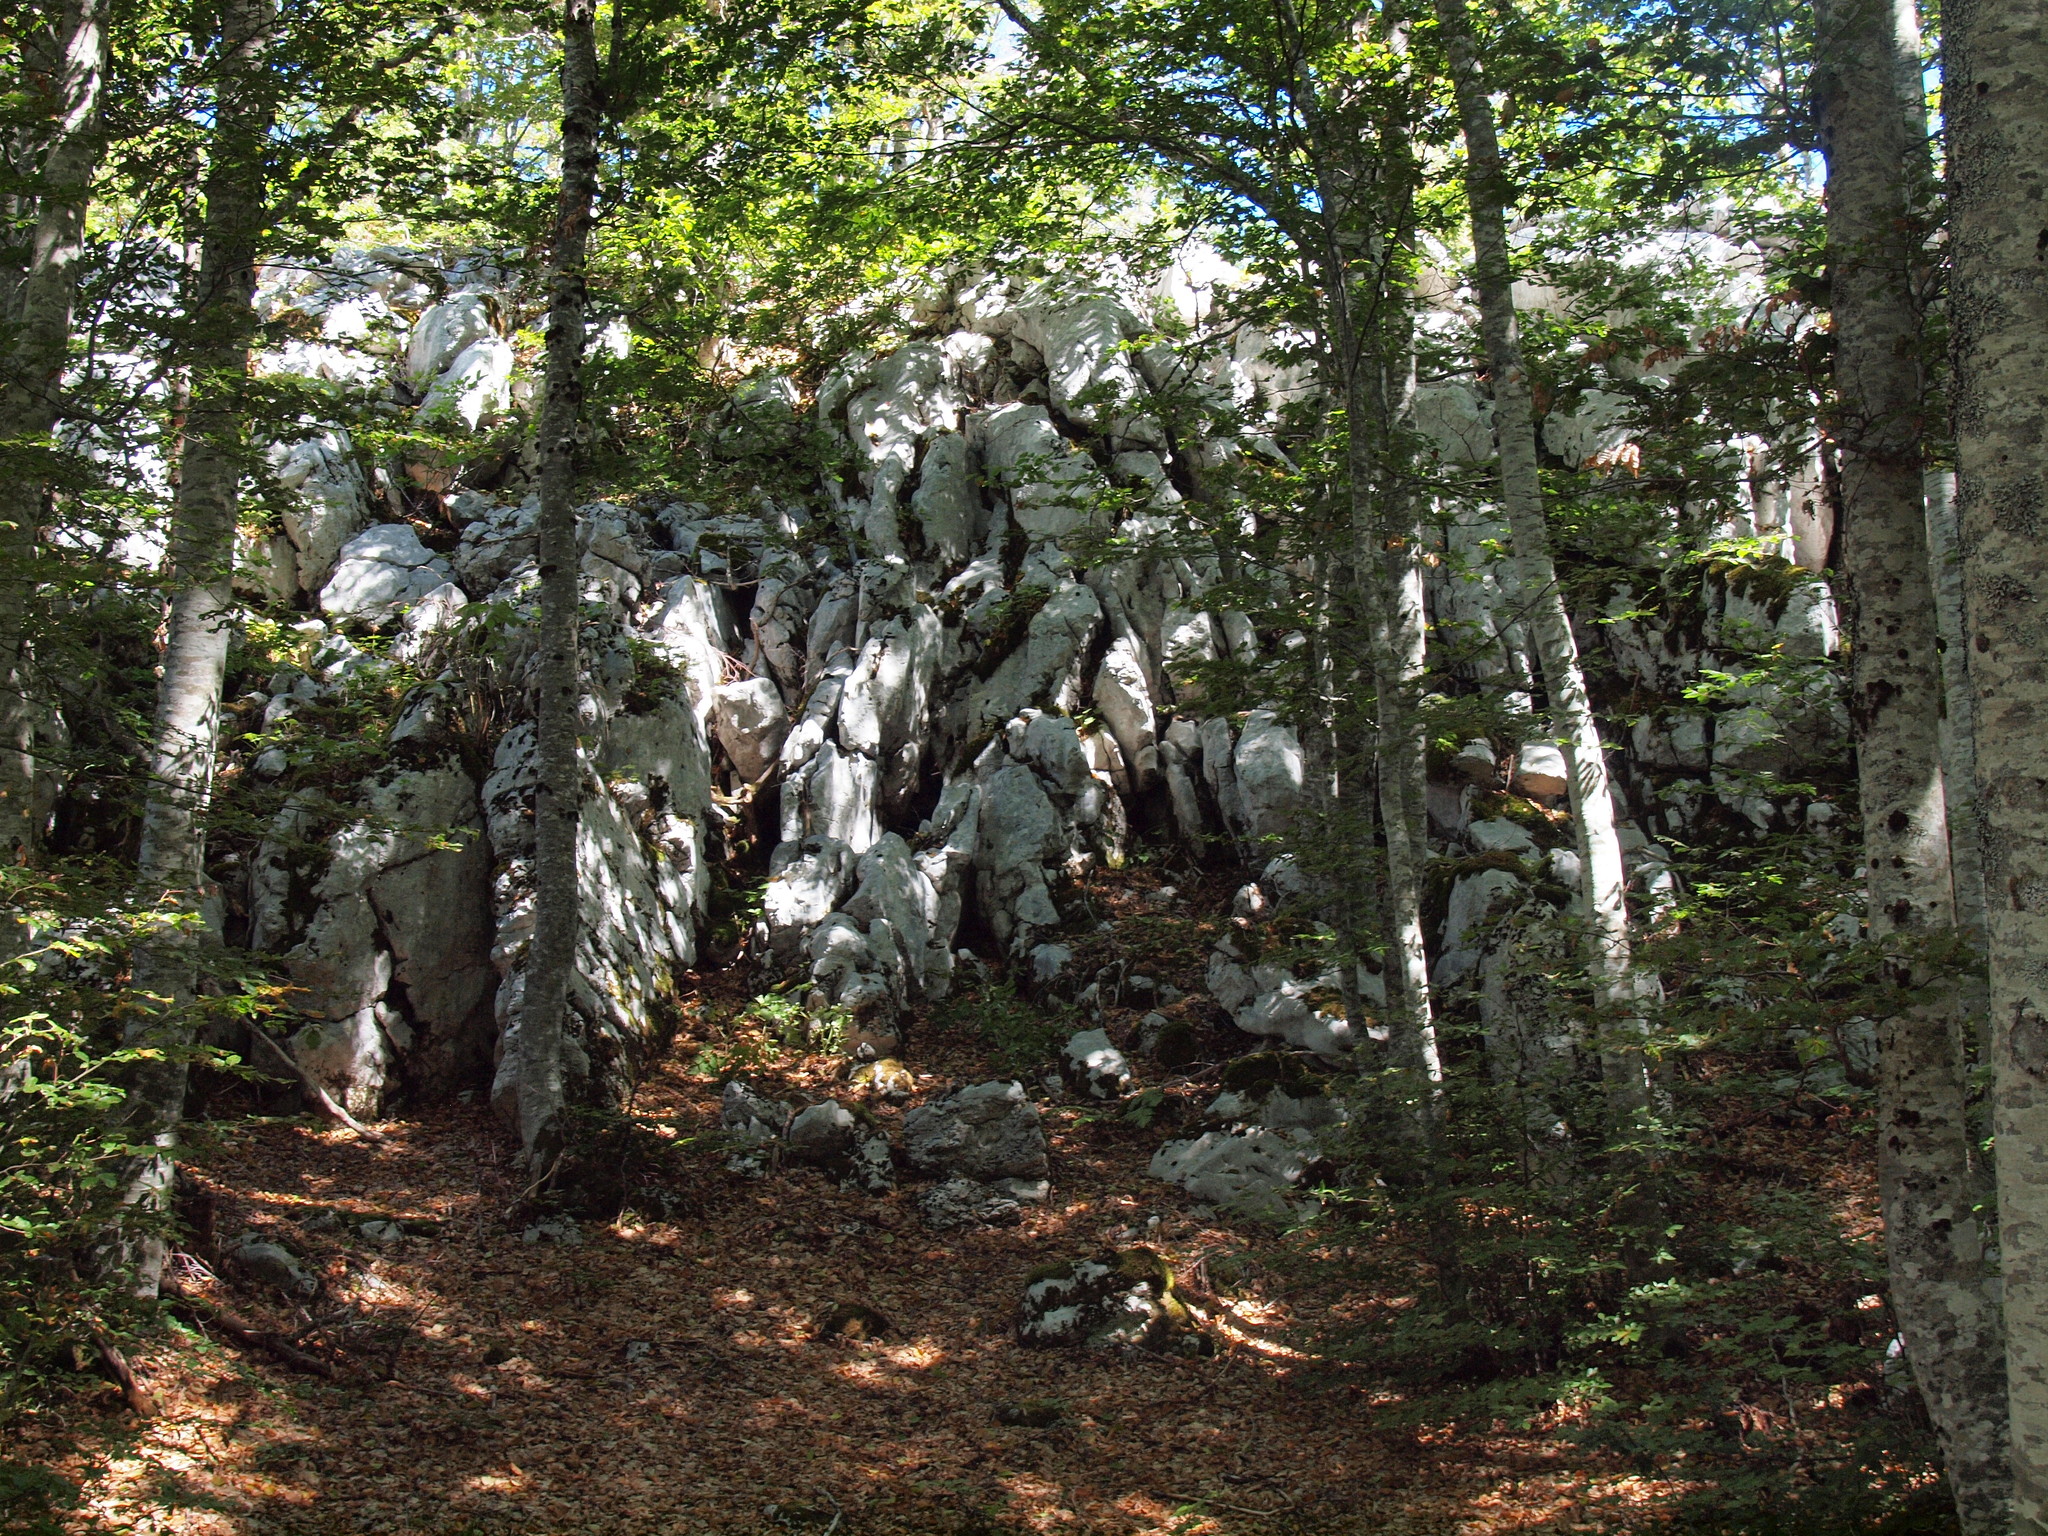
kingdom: Plantae
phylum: Tracheophyta
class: Magnoliopsida
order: Fagales
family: Fagaceae
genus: Fagus
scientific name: Fagus sylvatica
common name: Beech
